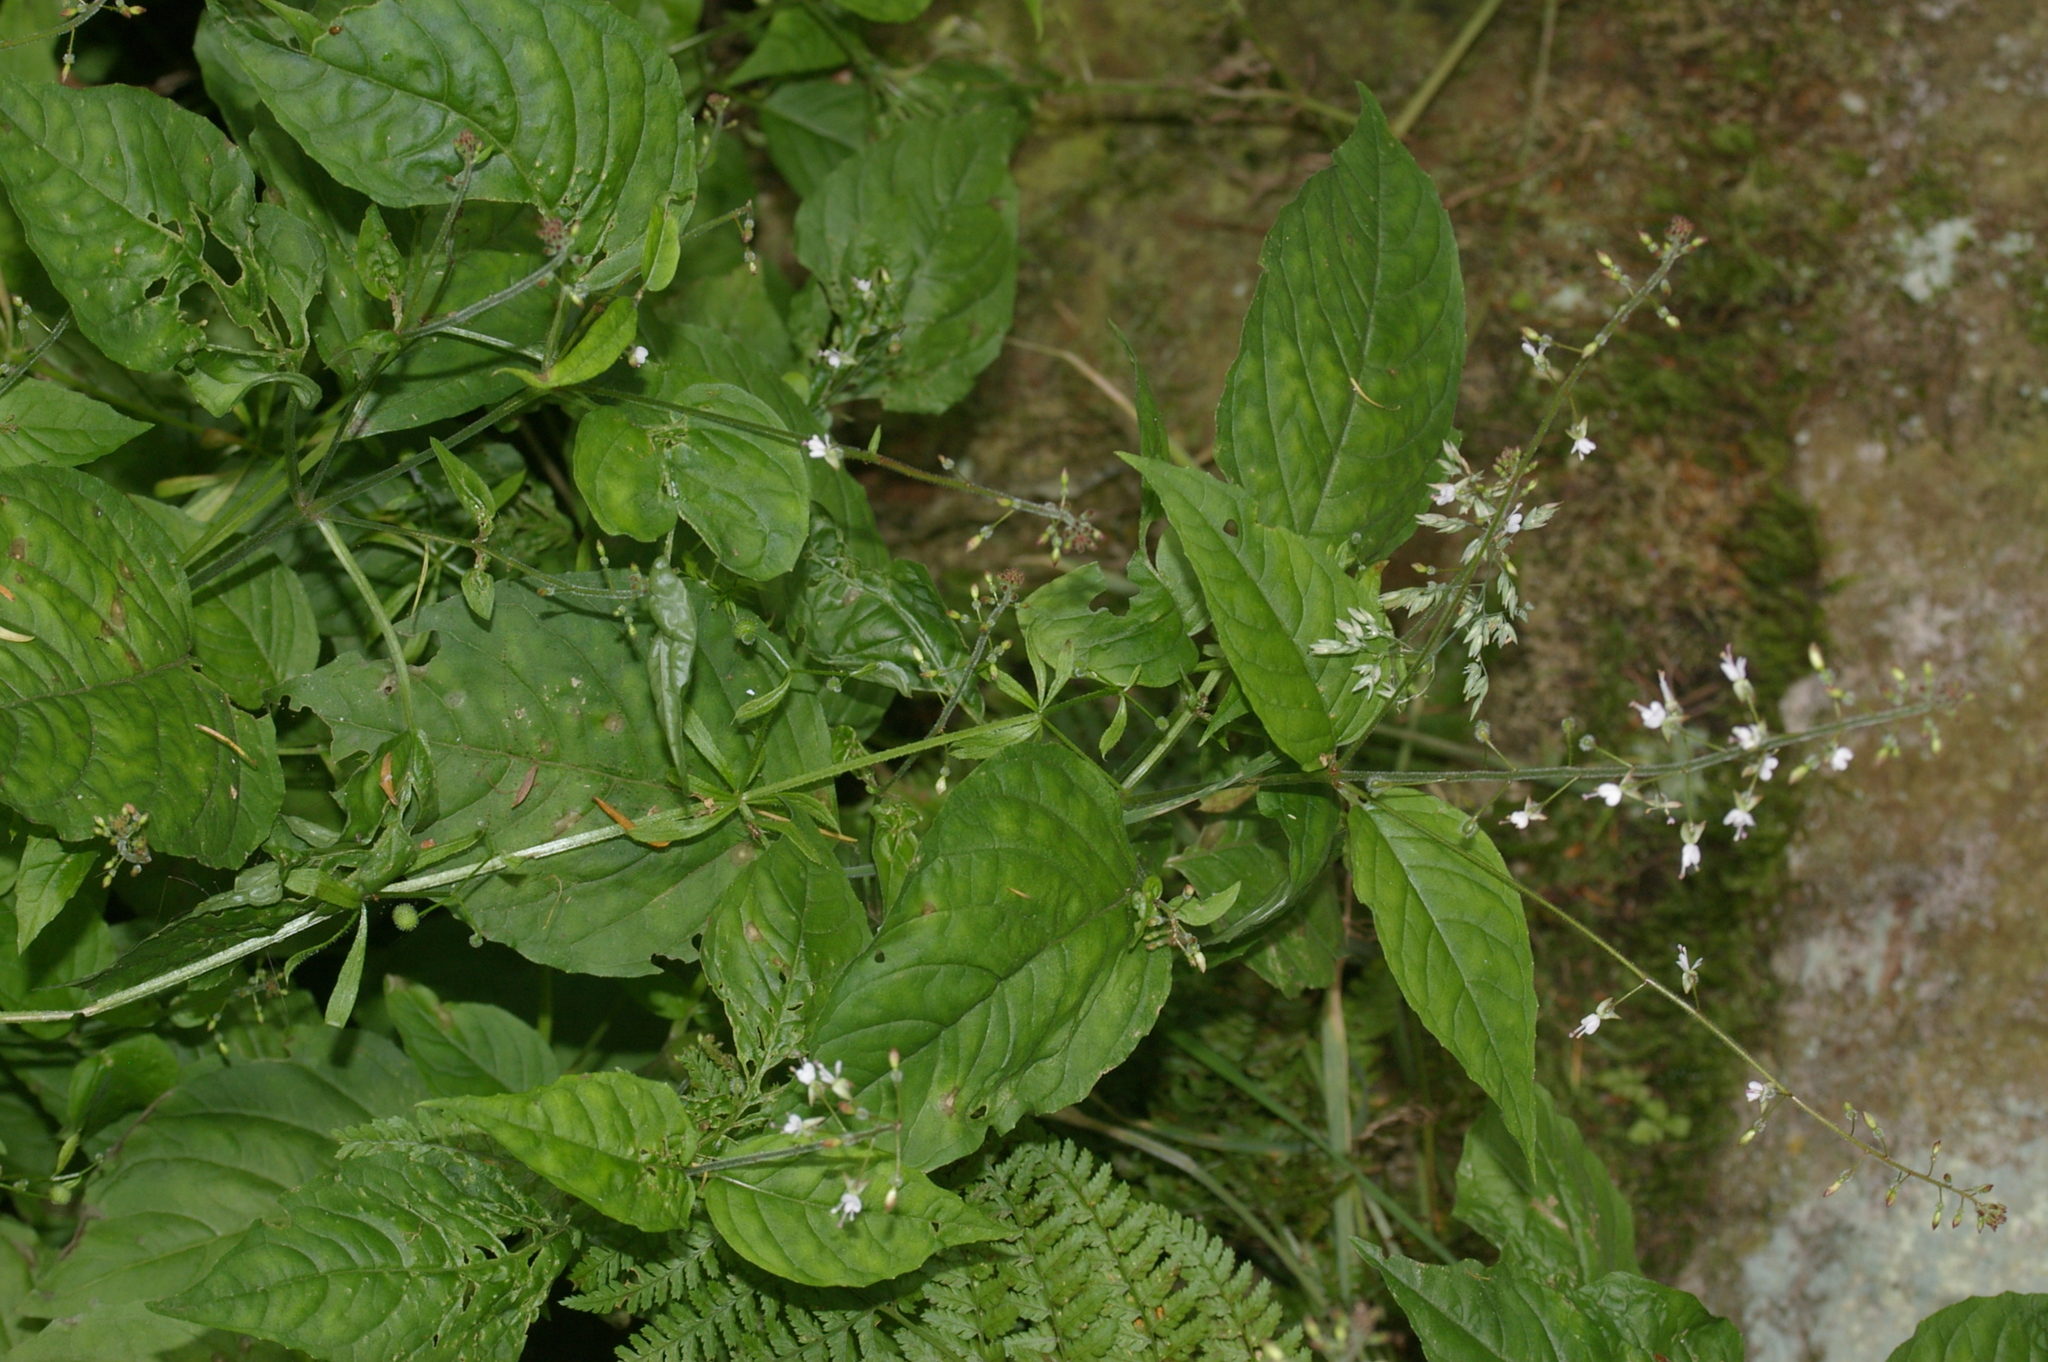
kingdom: Plantae
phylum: Tracheophyta
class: Magnoliopsida
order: Myrtales
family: Onagraceae
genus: Circaea
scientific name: Circaea lutetiana
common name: Enchanter's-nightshade
